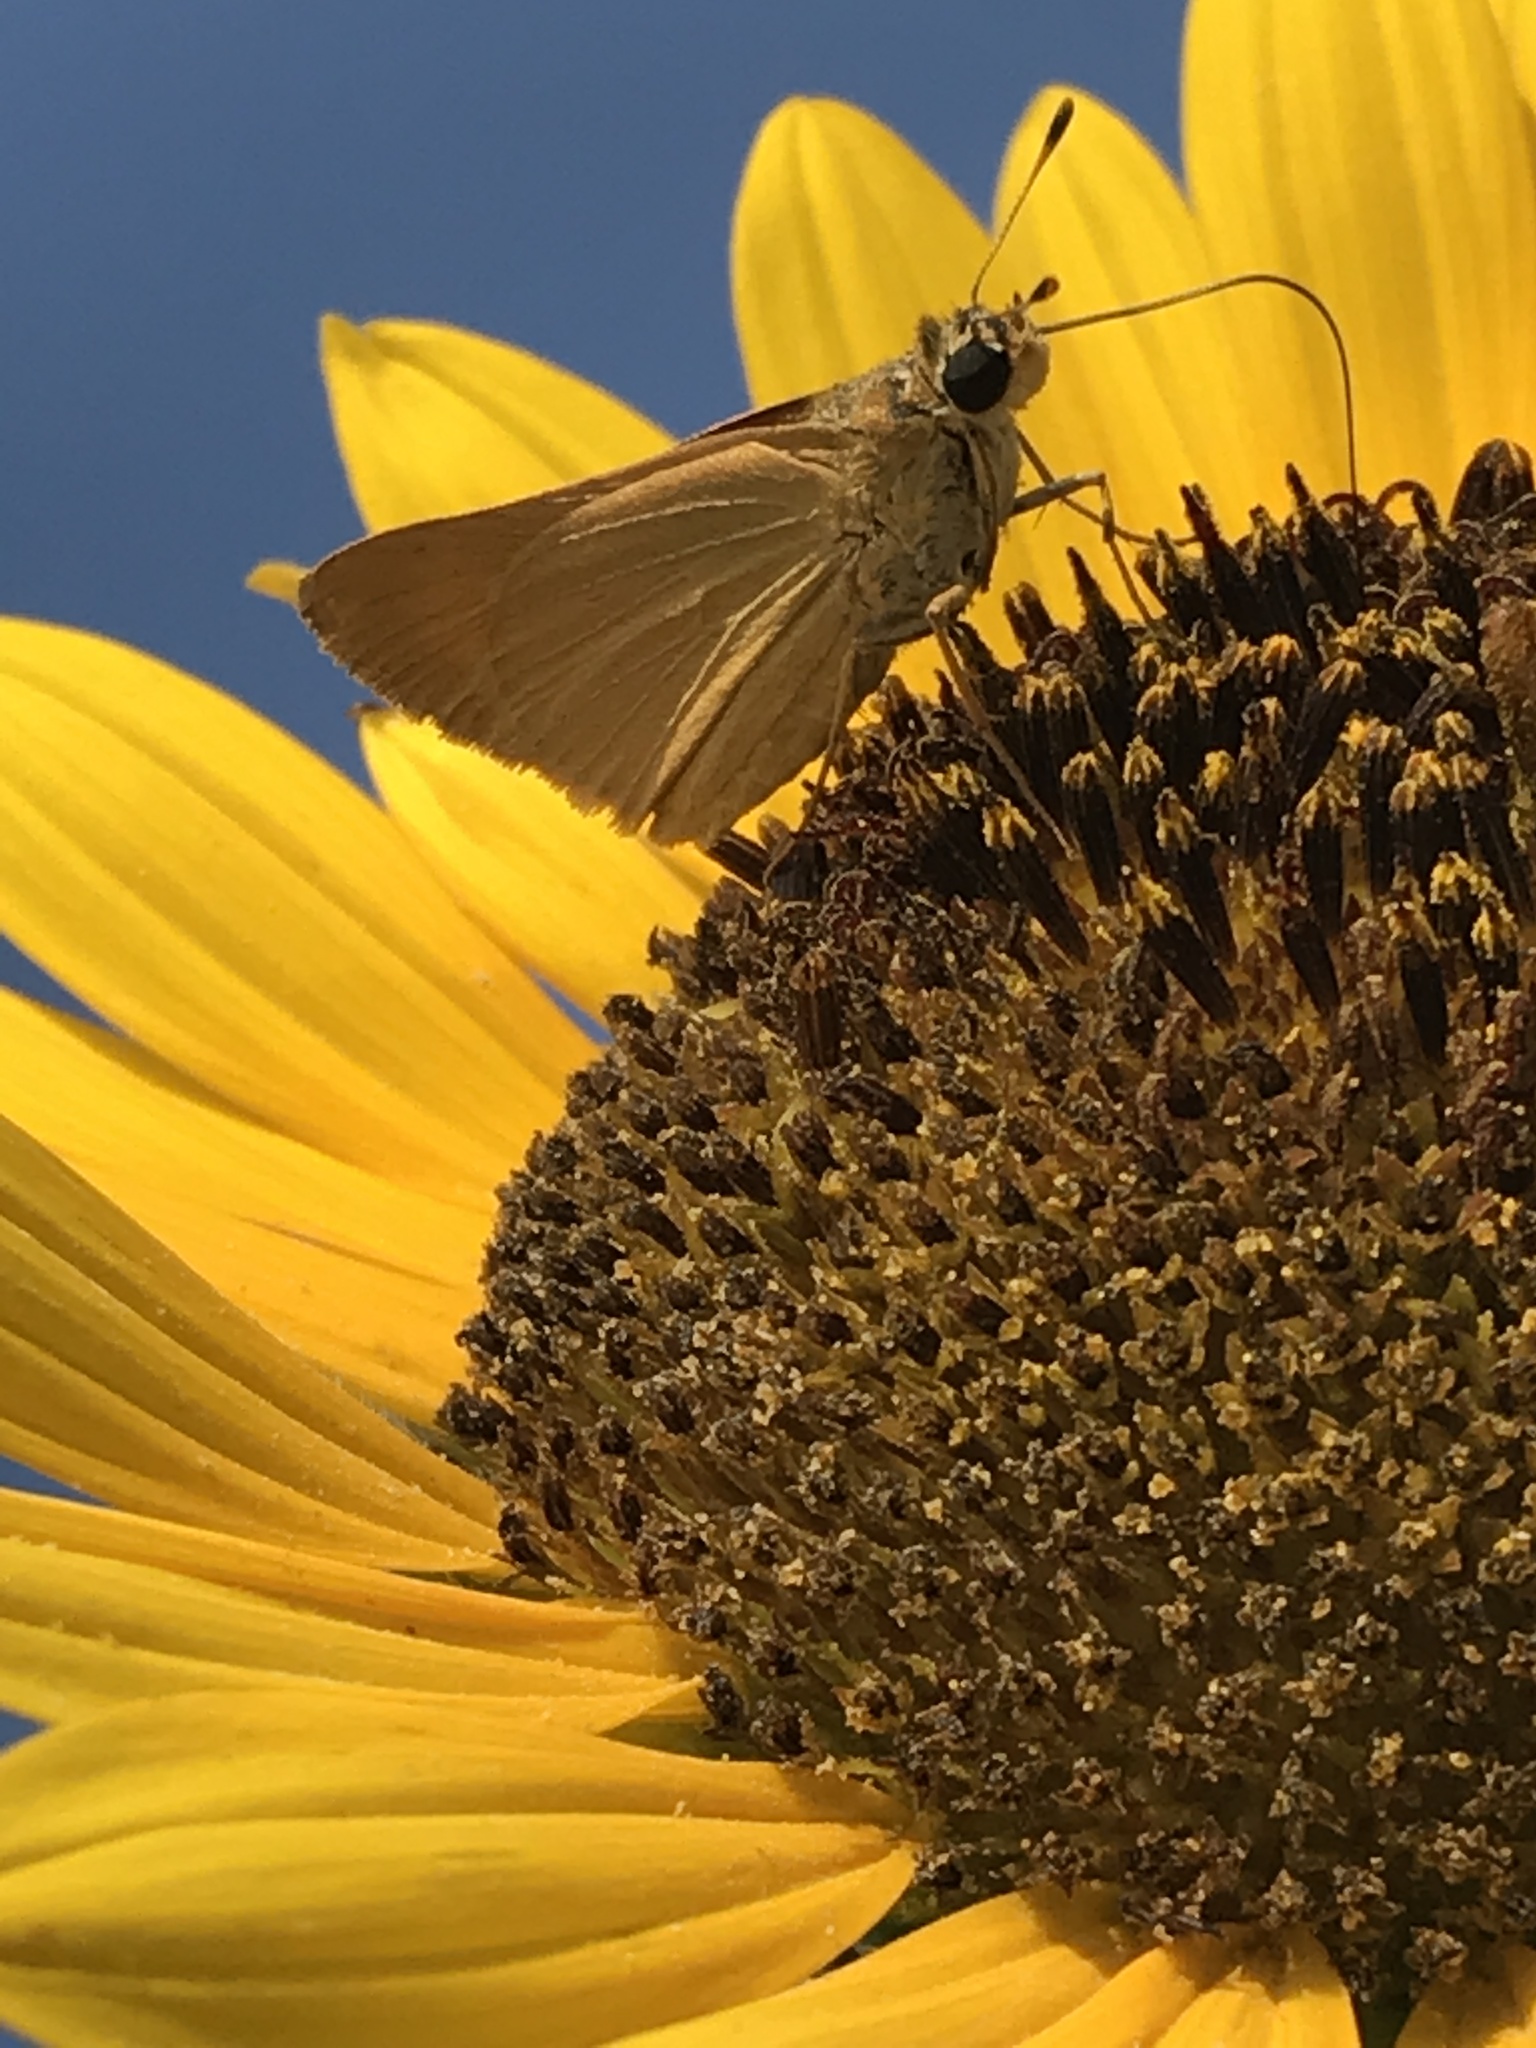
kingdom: Animalia
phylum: Arthropoda
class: Insecta
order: Lepidoptera
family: Hesperiidae
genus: Atrytone
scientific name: Atrytone delaware
